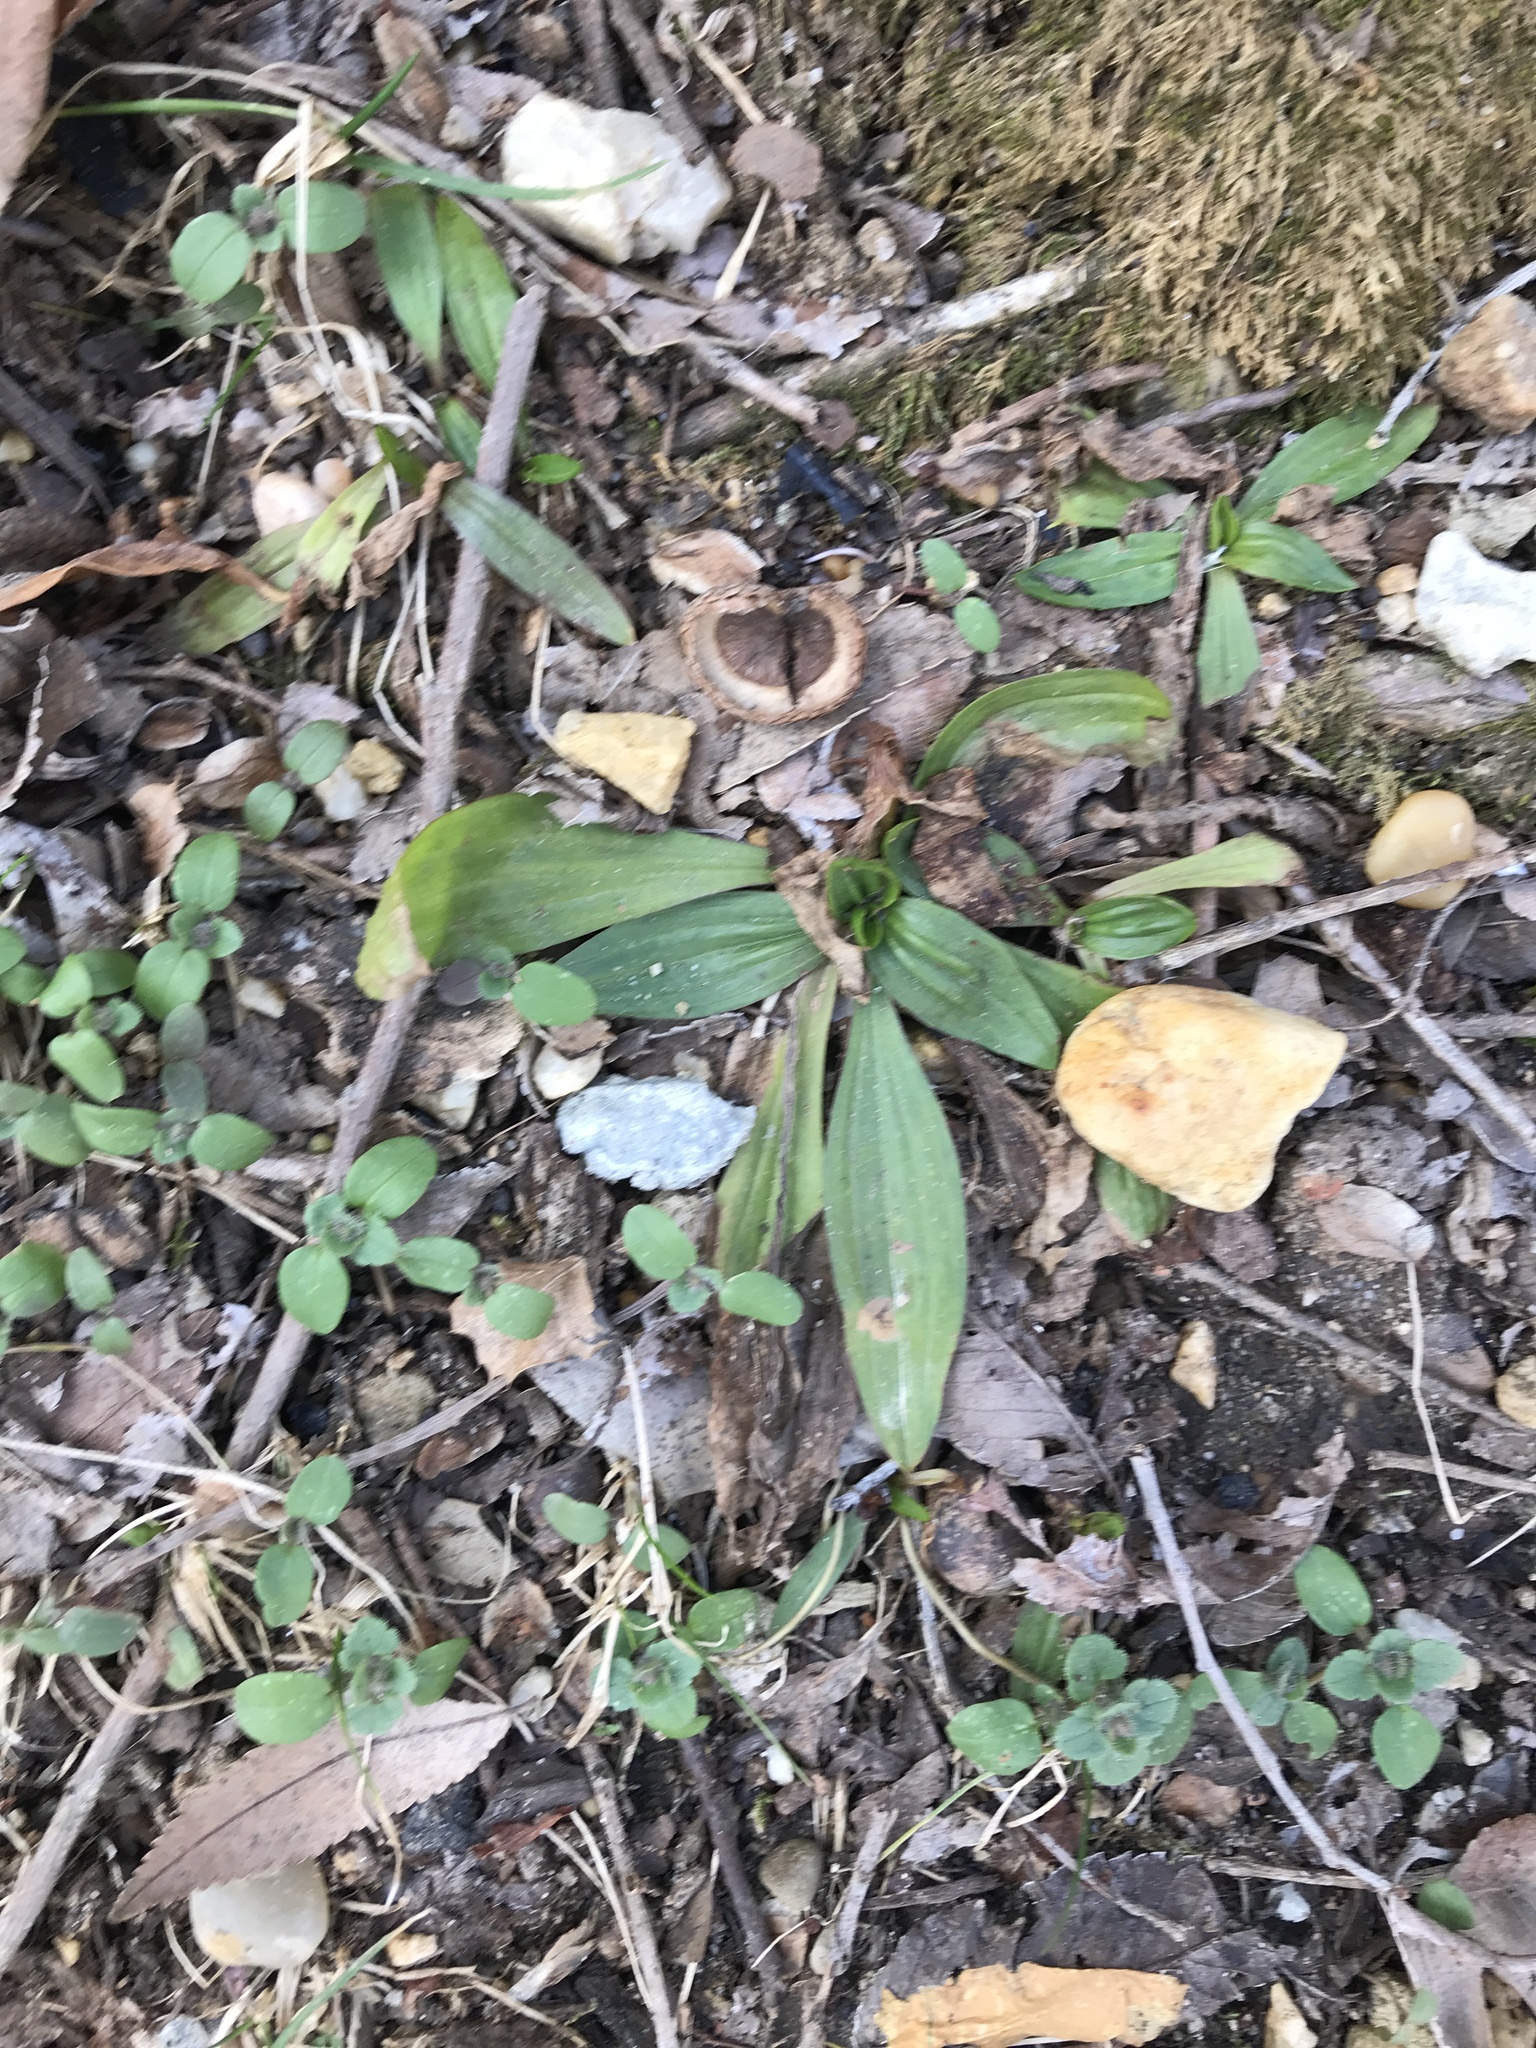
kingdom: Plantae
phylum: Tracheophyta
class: Magnoliopsida
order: Lamiales
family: Plantaginaceae
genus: Plantago
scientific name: Plantago lanceolata
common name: Ribwort plantain
